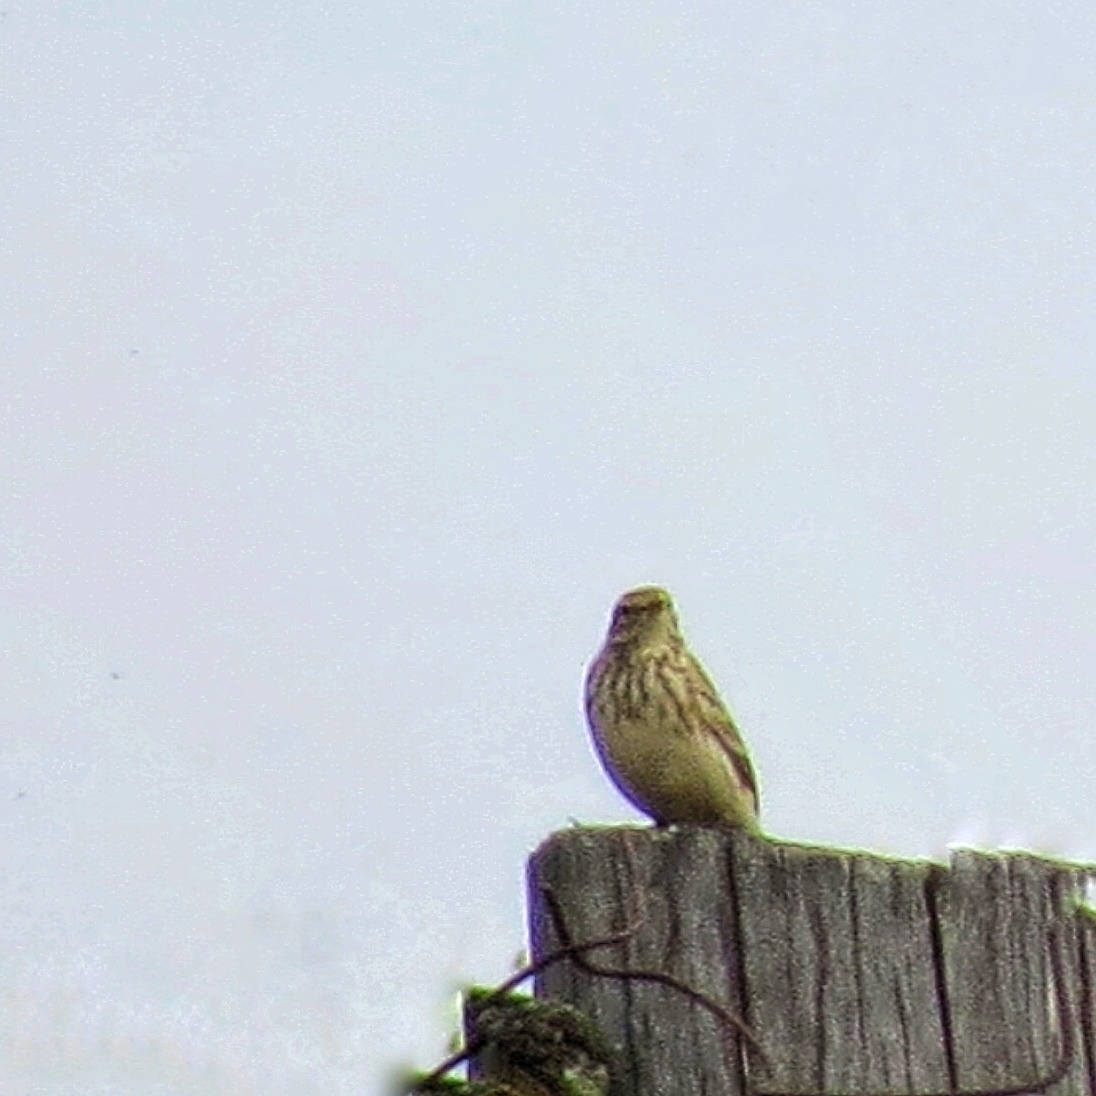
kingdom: Animalia
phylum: Chordata
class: Aves
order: Passeriformes
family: Motacillidae
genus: Anthus
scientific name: Anthus spinoletta
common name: Water pipit
